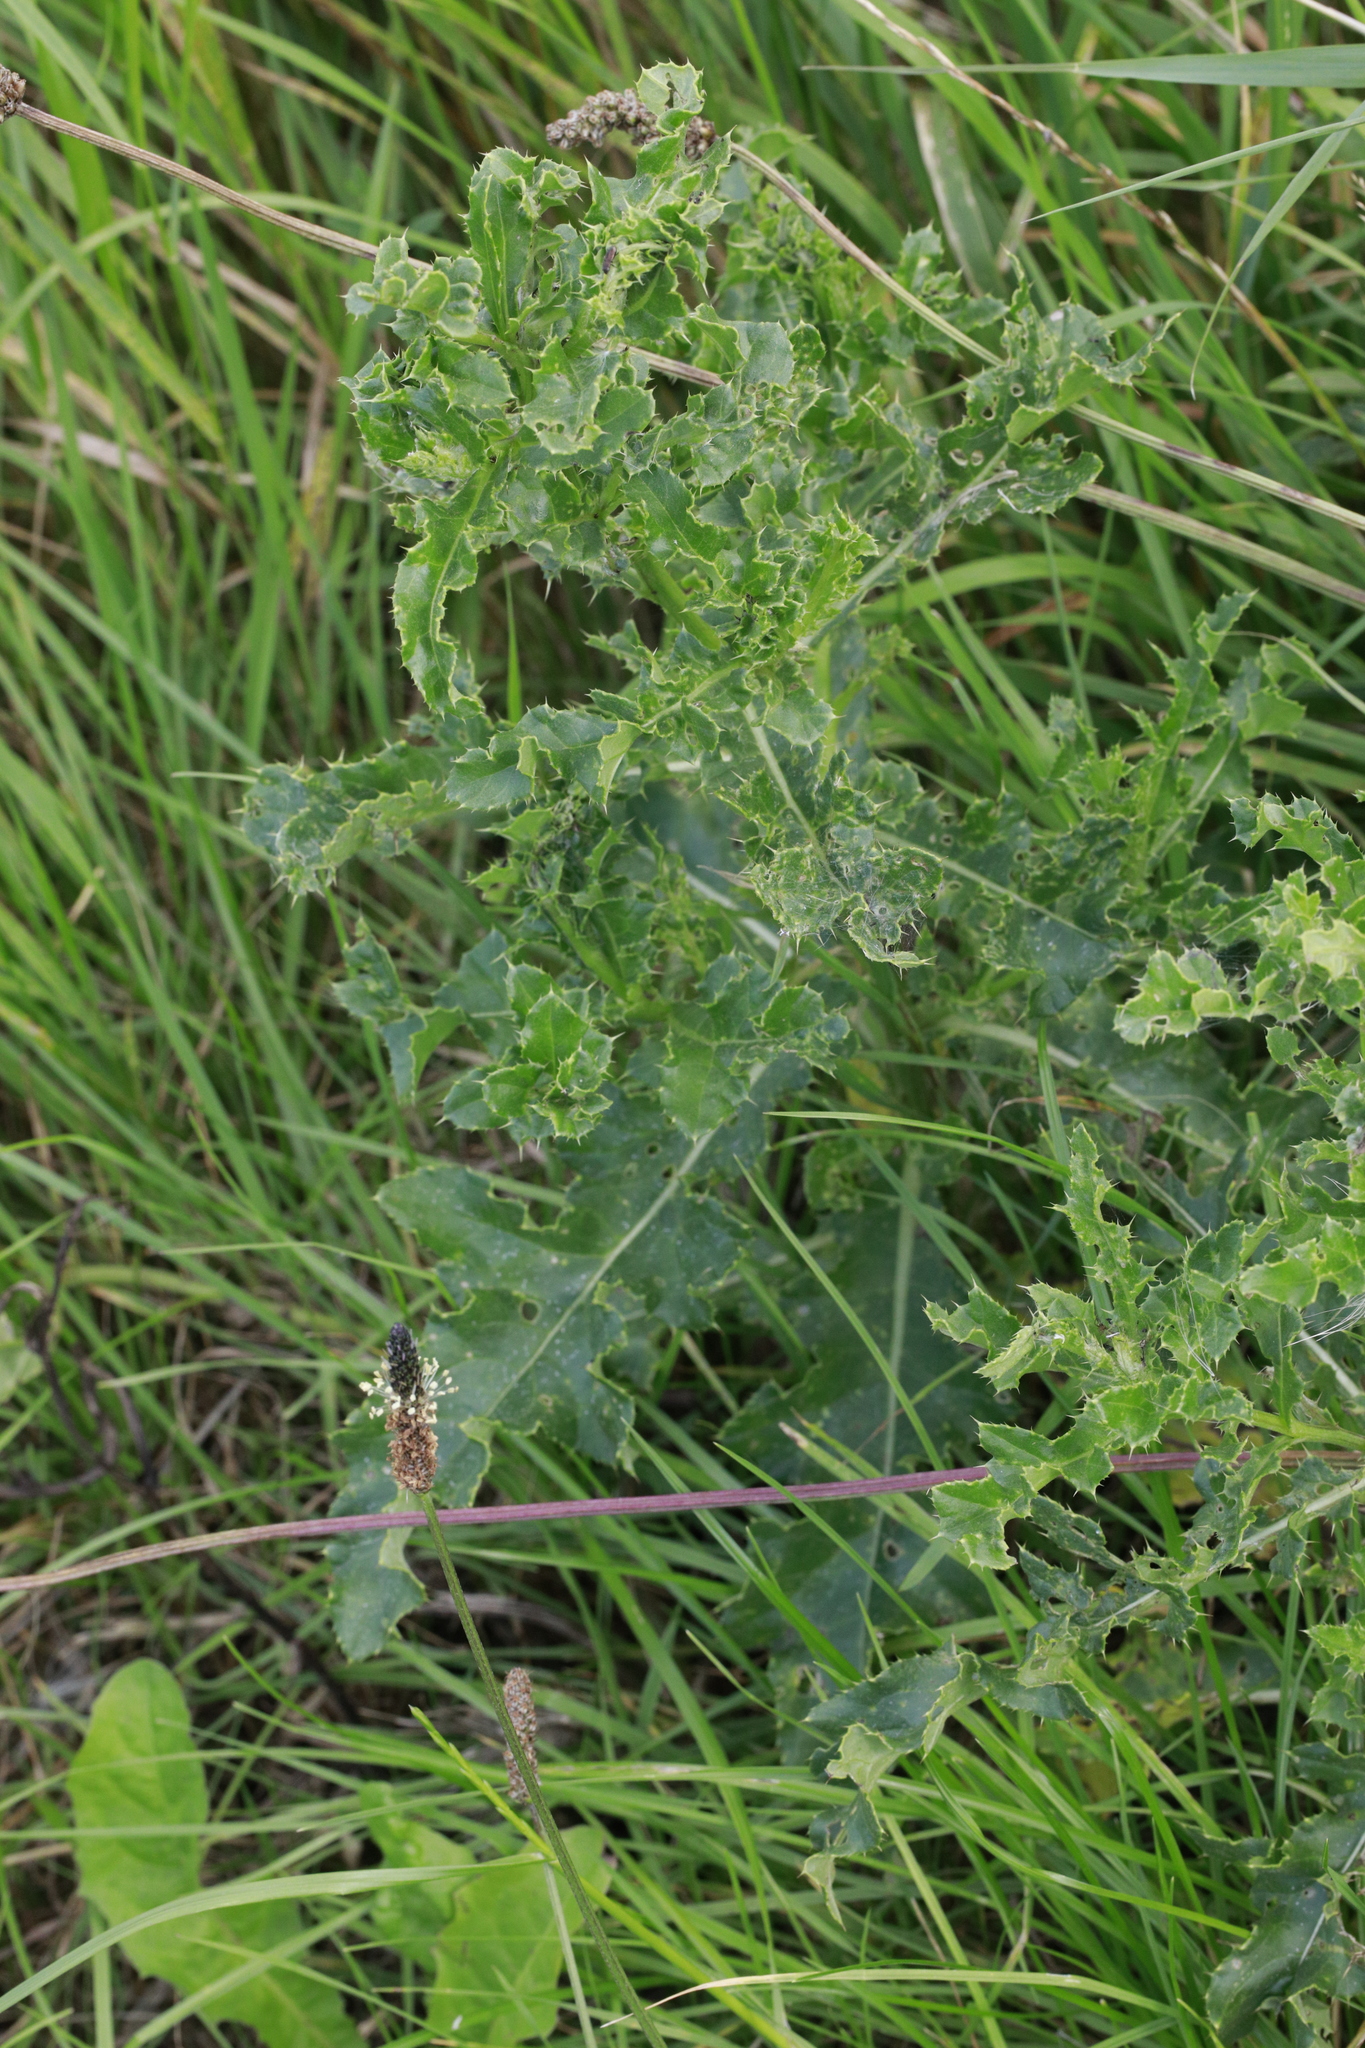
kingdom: Plantae
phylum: Tracheophyta
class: Magnoliopsida
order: Asterales
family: Asteraceae
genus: Cirsium
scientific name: Cirsium arvense
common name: Creeping thistle
